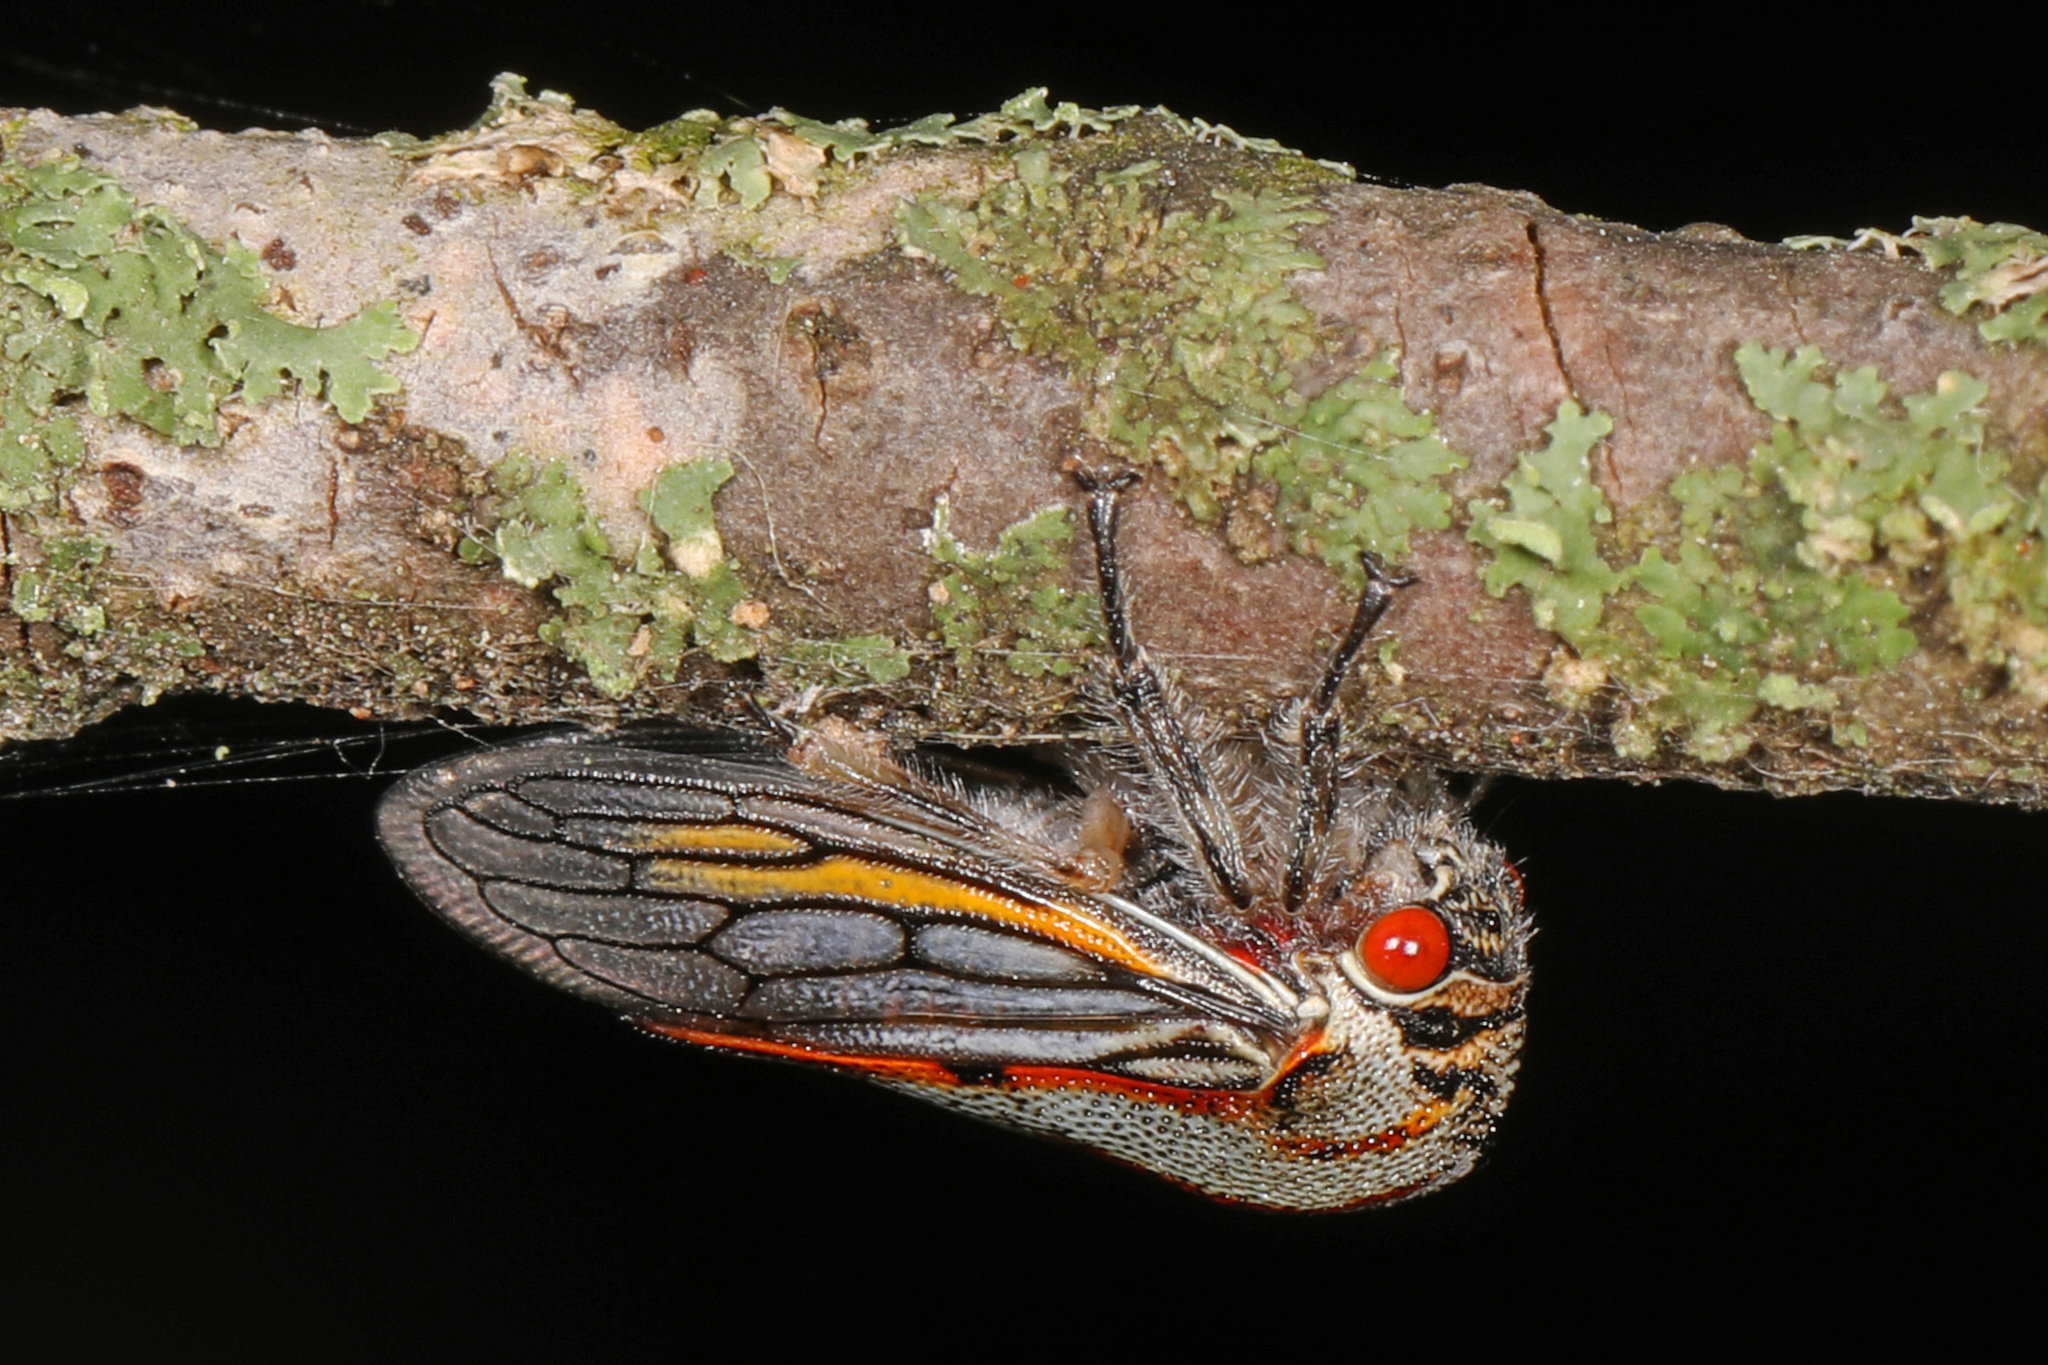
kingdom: Animalia
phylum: Arthropoda
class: Insecta
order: Hemiptera
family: Membracidae
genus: Platycotis
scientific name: Platycotis vittatus
